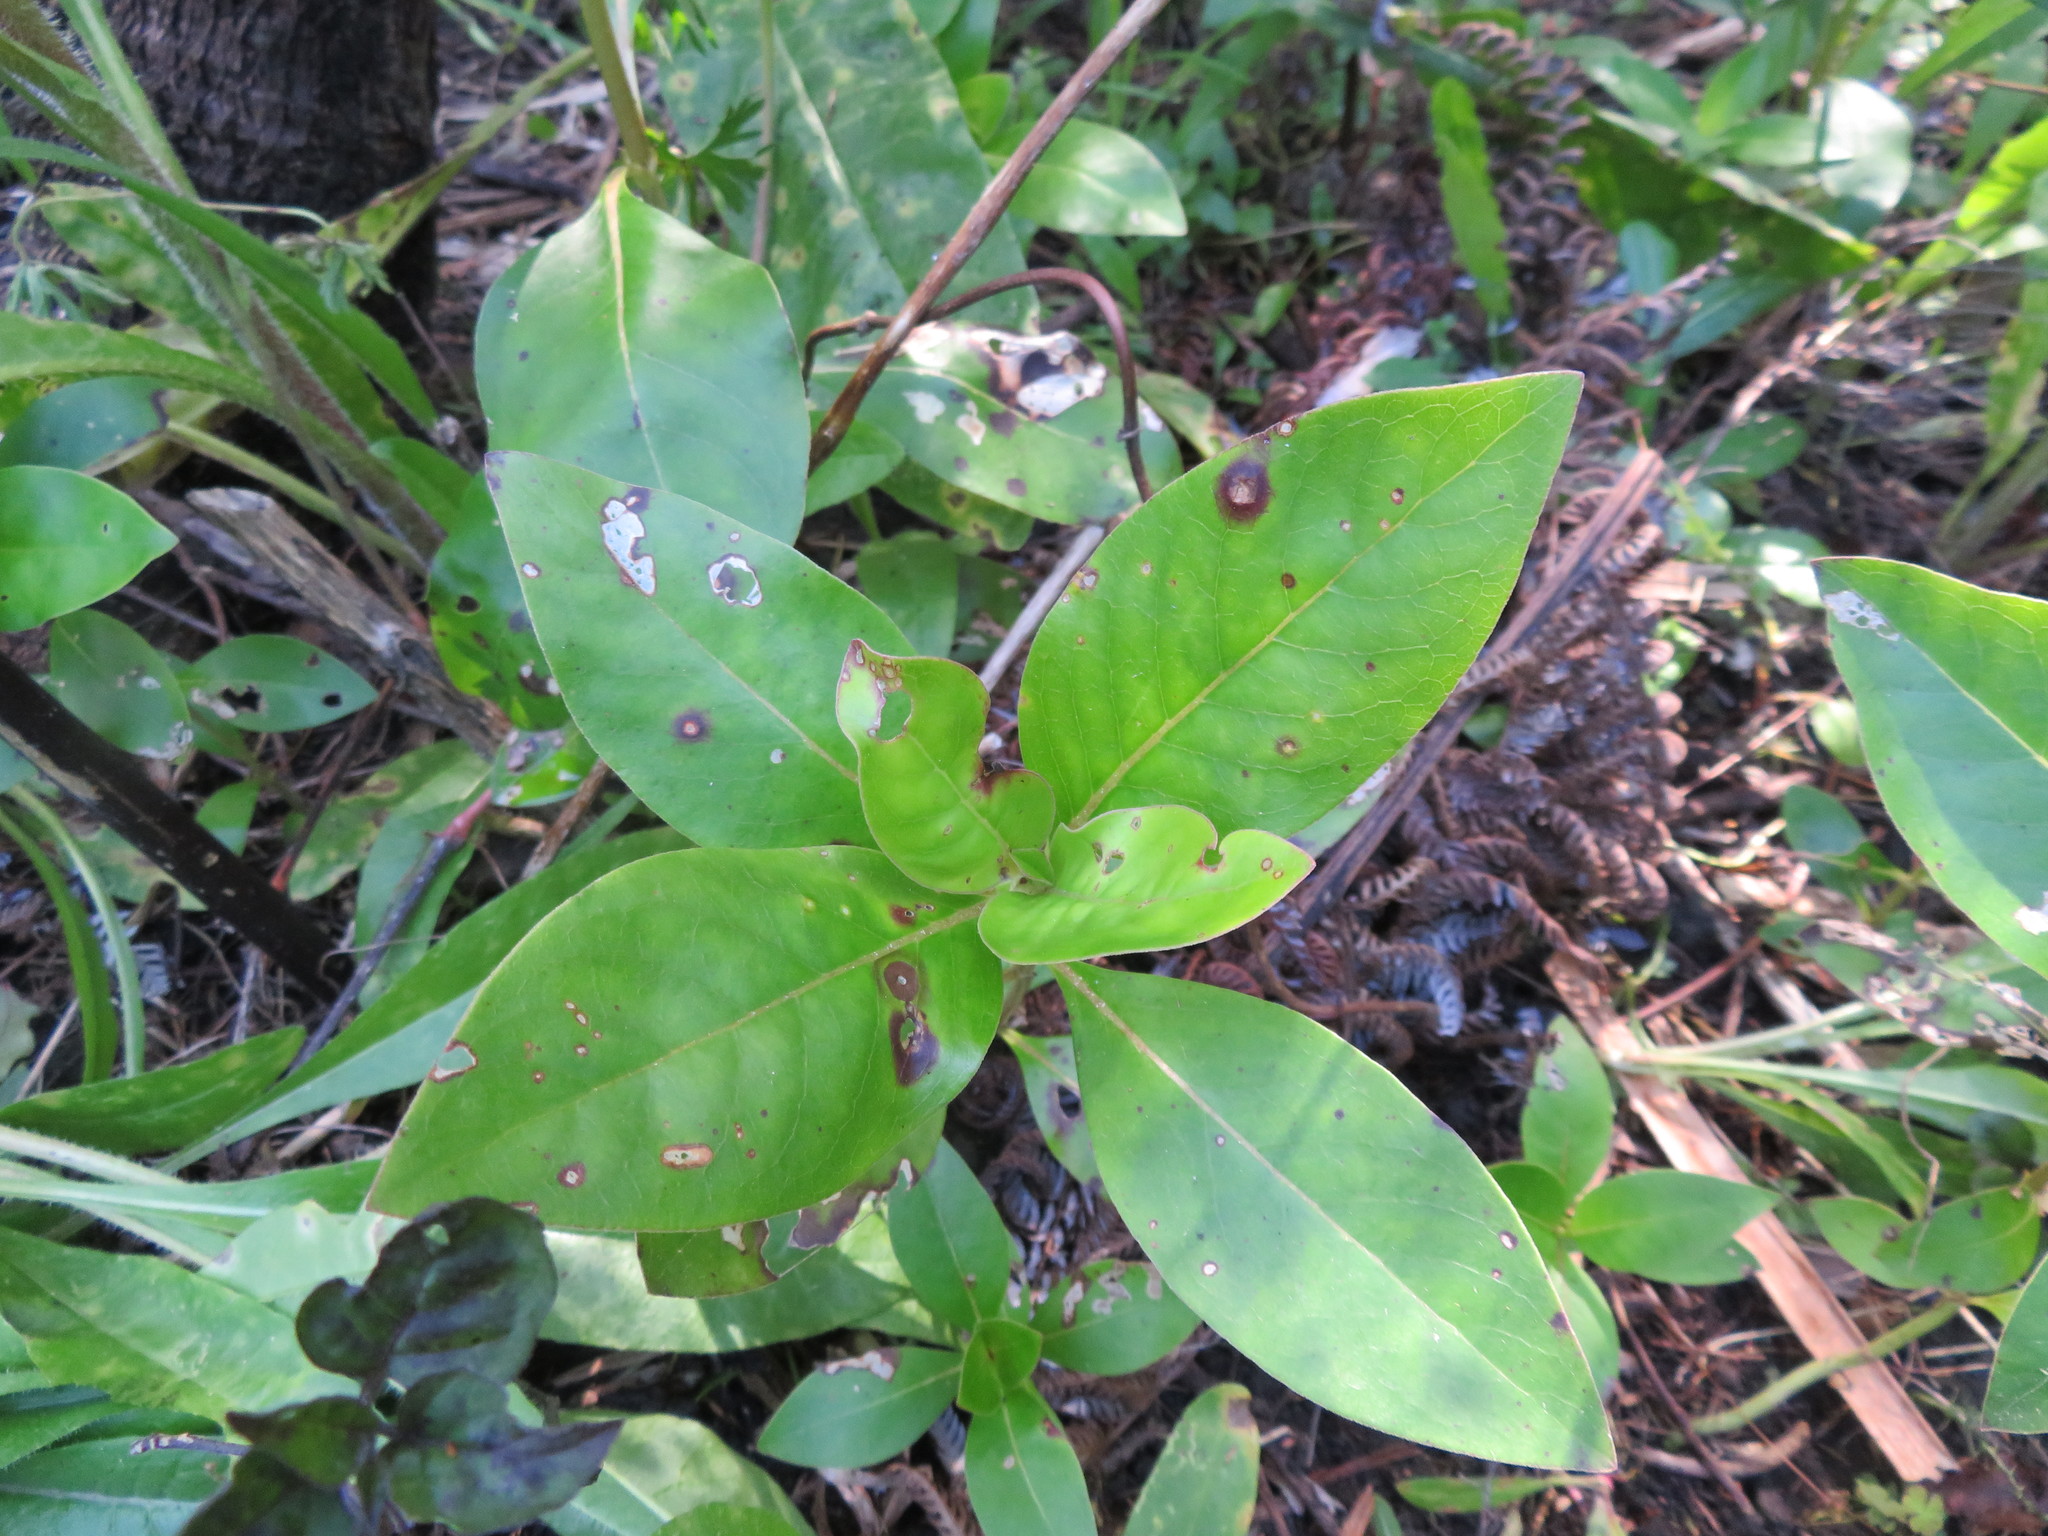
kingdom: Plantae
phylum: Tracheophyta
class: Magnoliopsida
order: Gentianales
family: Rubiaceae
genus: Coprosma
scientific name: Coprosma robusta
